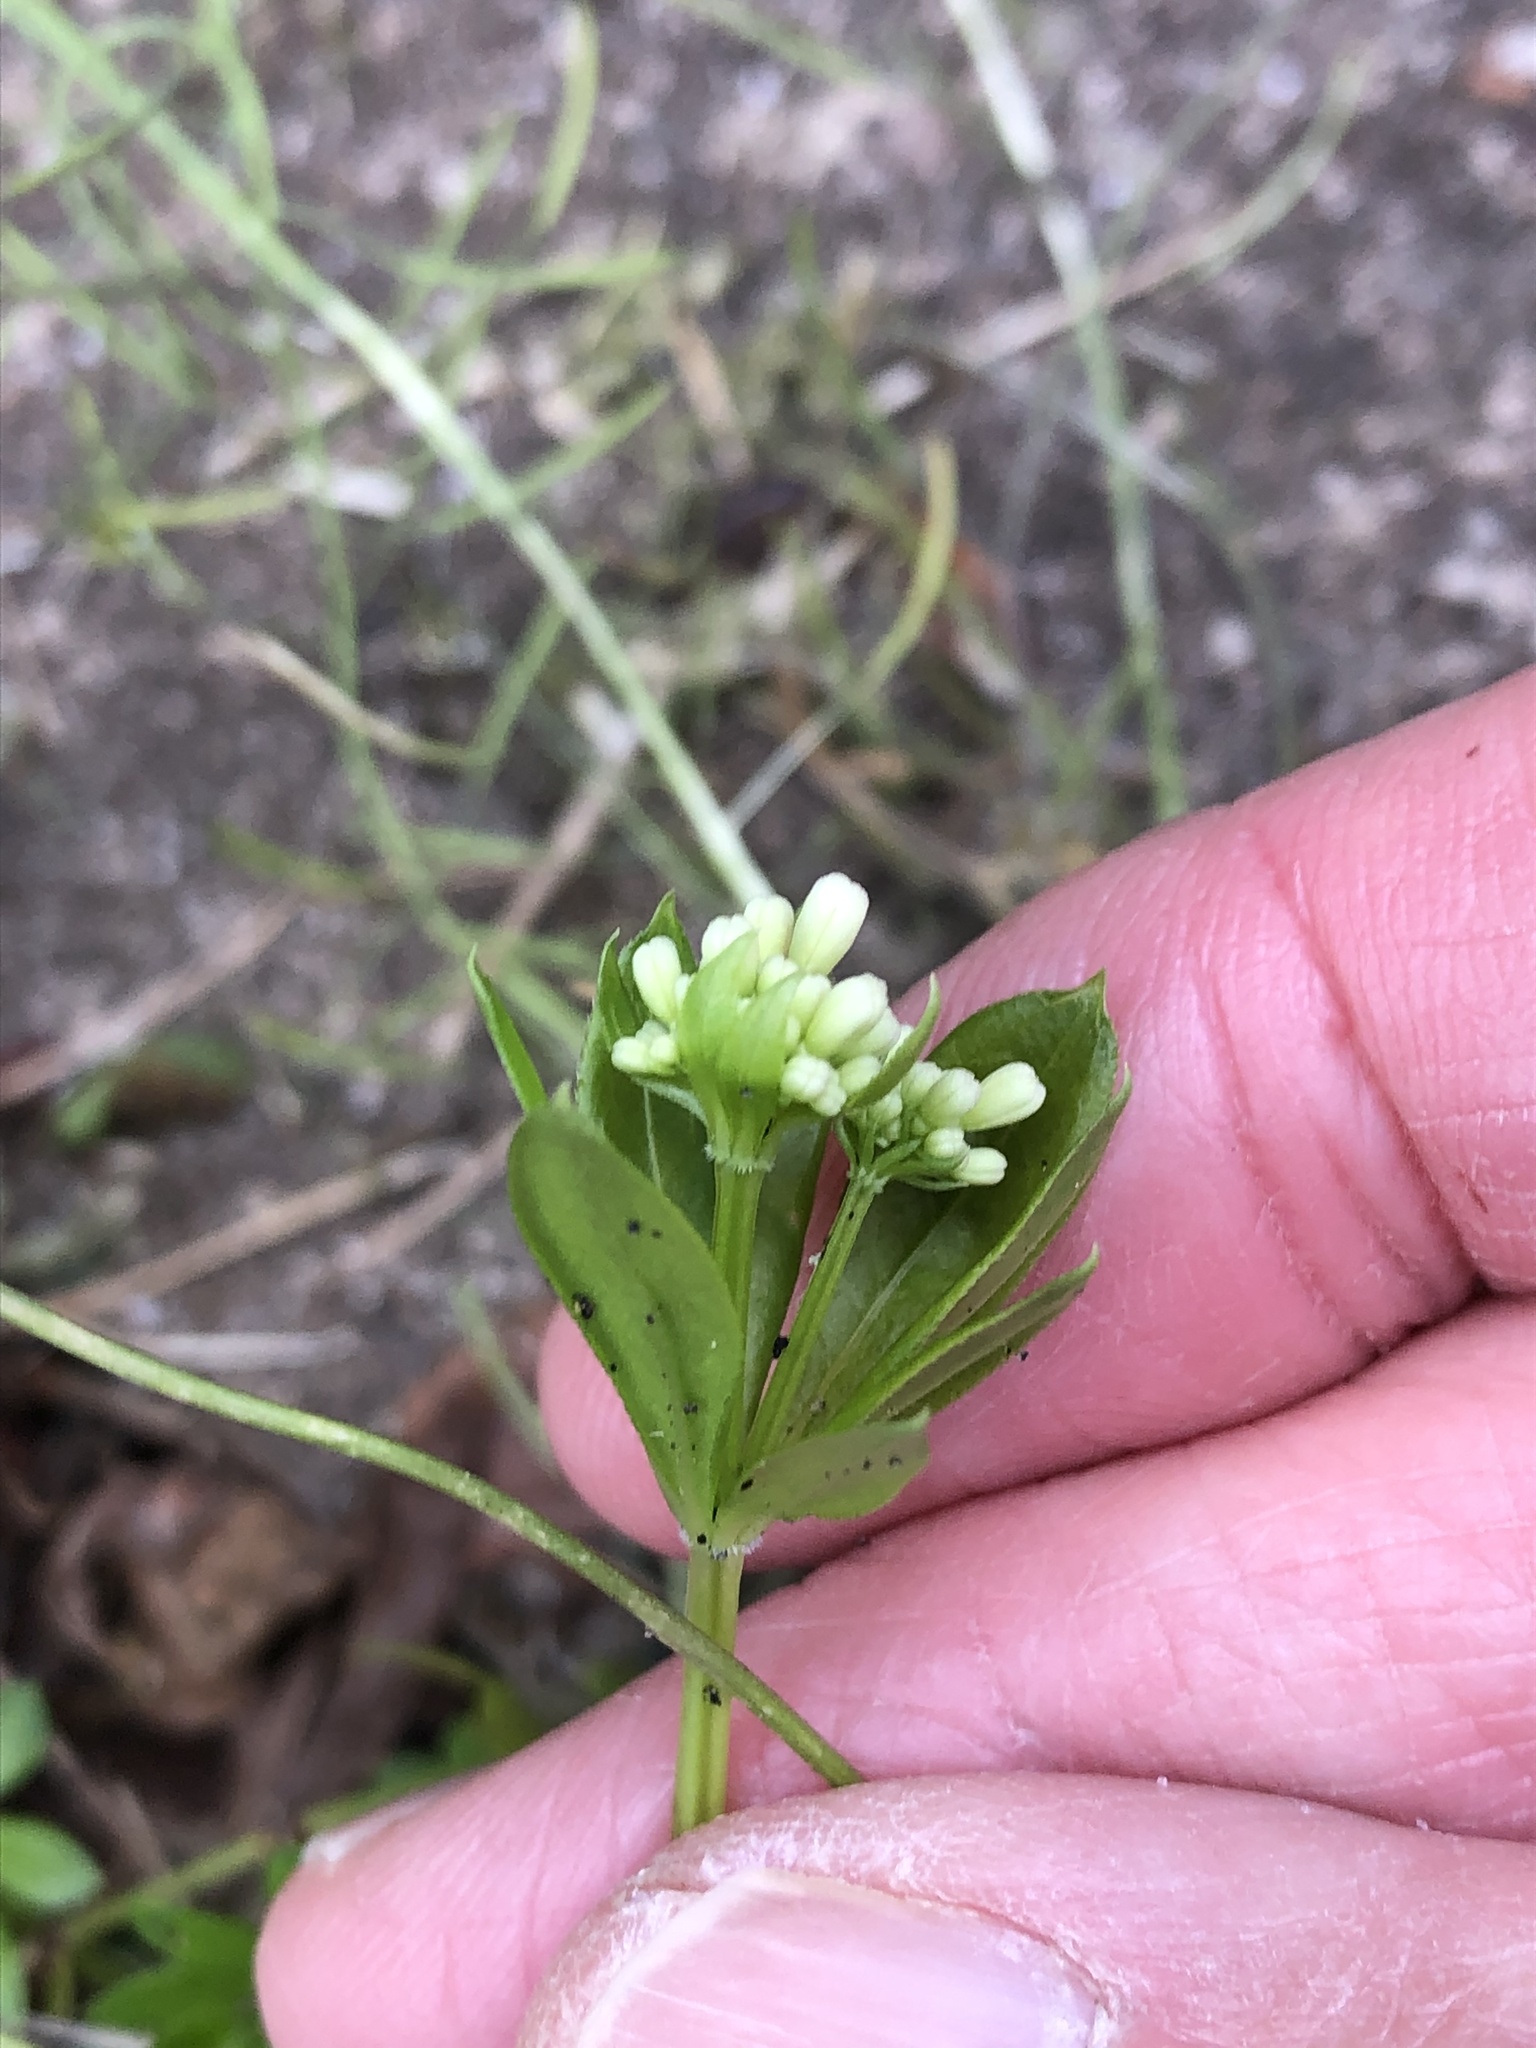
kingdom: Plantae
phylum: Tracheophyta
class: Magnoliopsida
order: Gentianales
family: Rubiaceae
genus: Galium
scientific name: Galium odoratum
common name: Sweet woodruff
